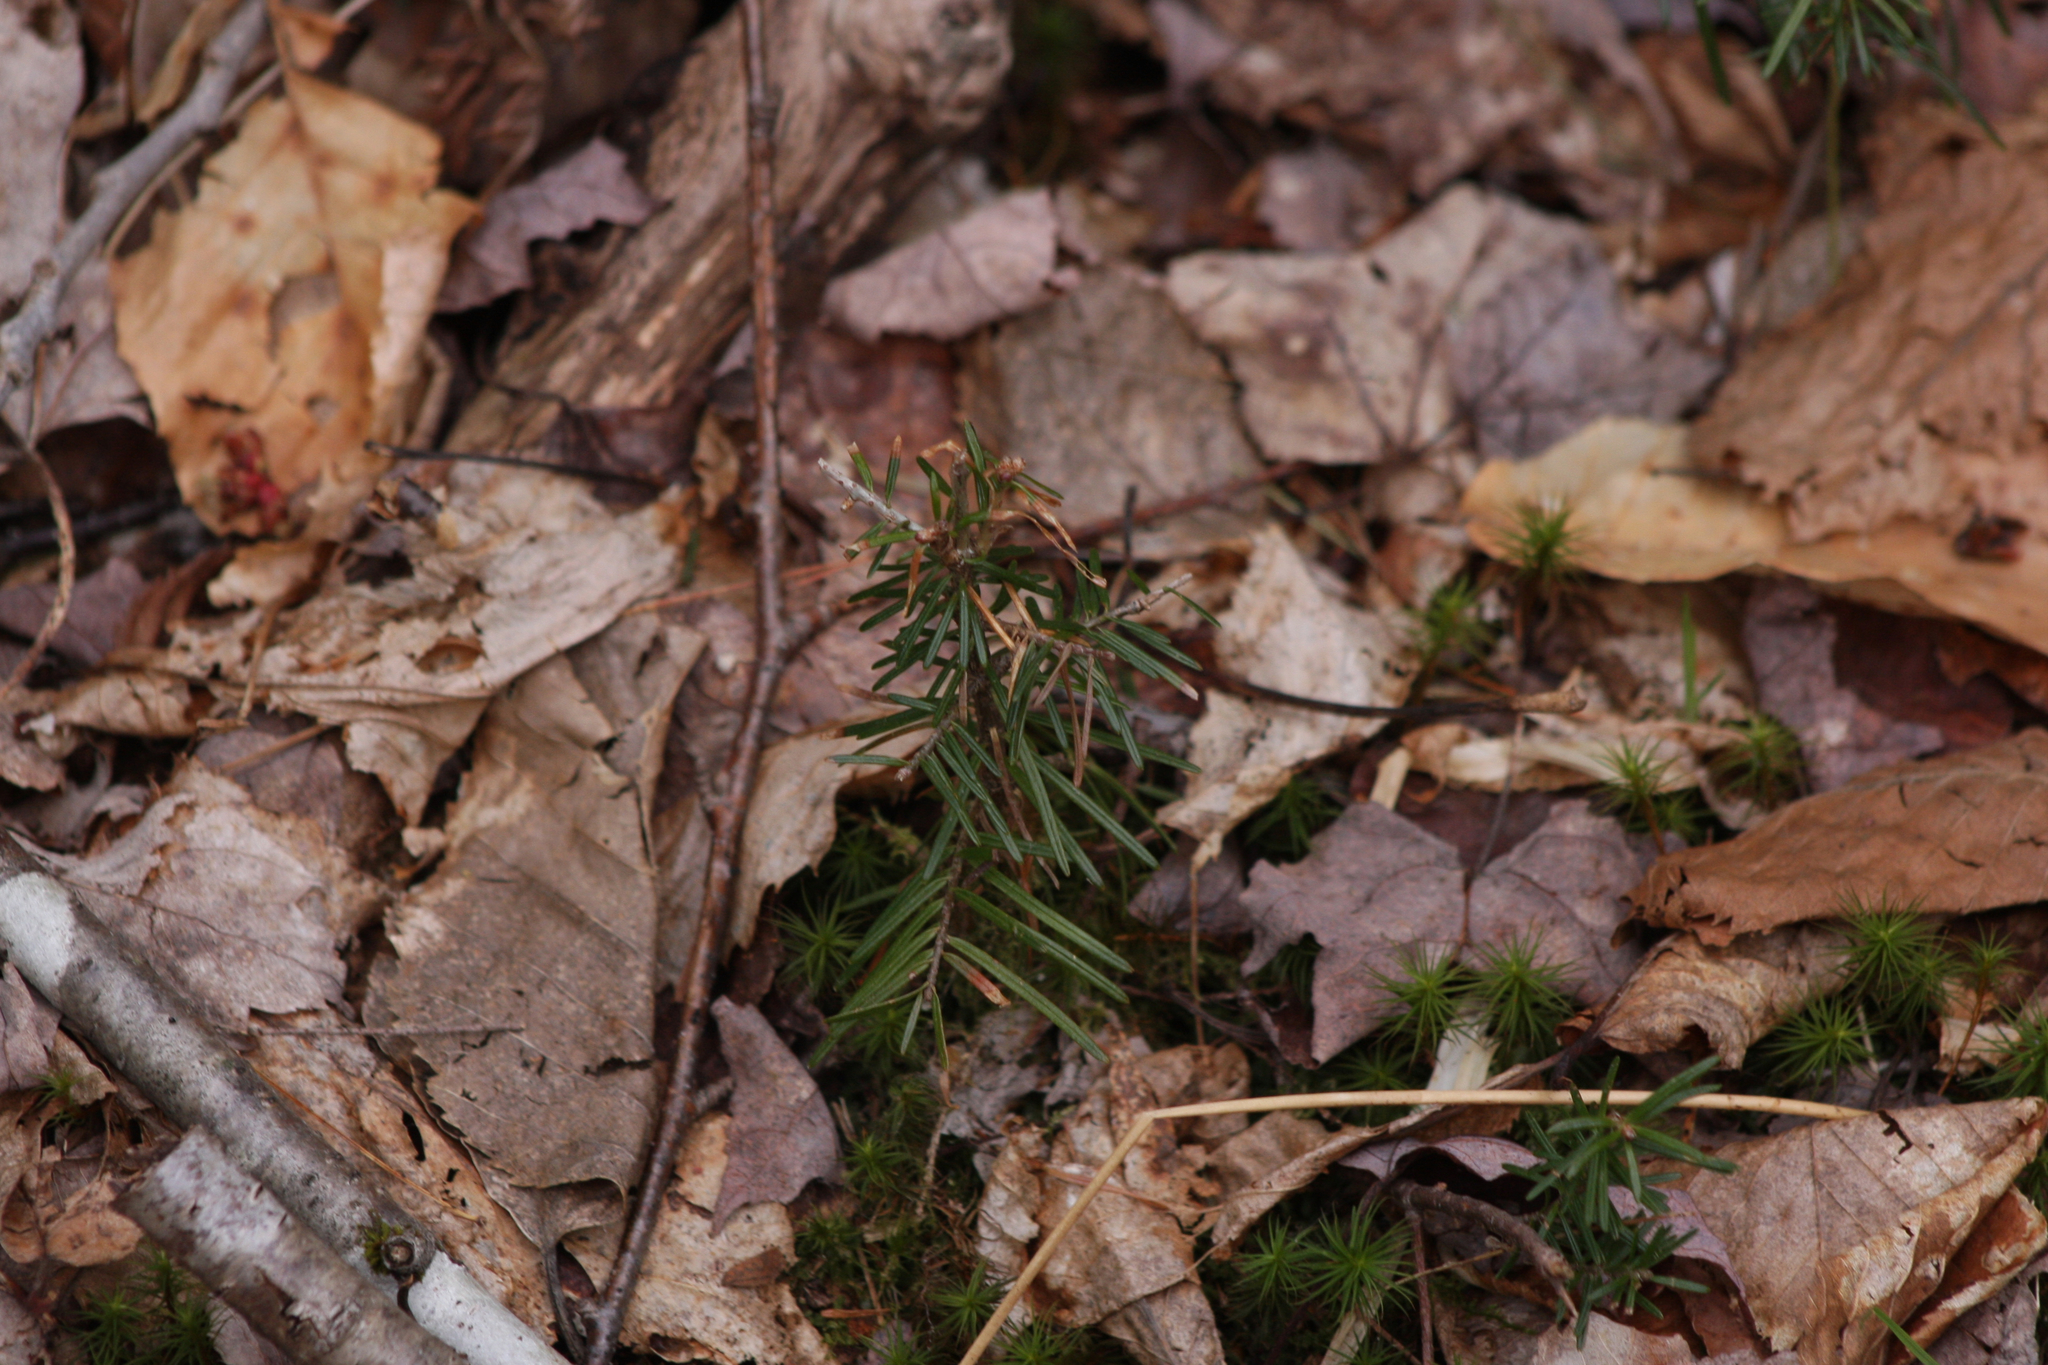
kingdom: Plantae
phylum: Tracheophyta
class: Pinopsida
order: Pinales
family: Pinaceae
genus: Abies
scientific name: Abies balsamea
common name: Balsam fir
